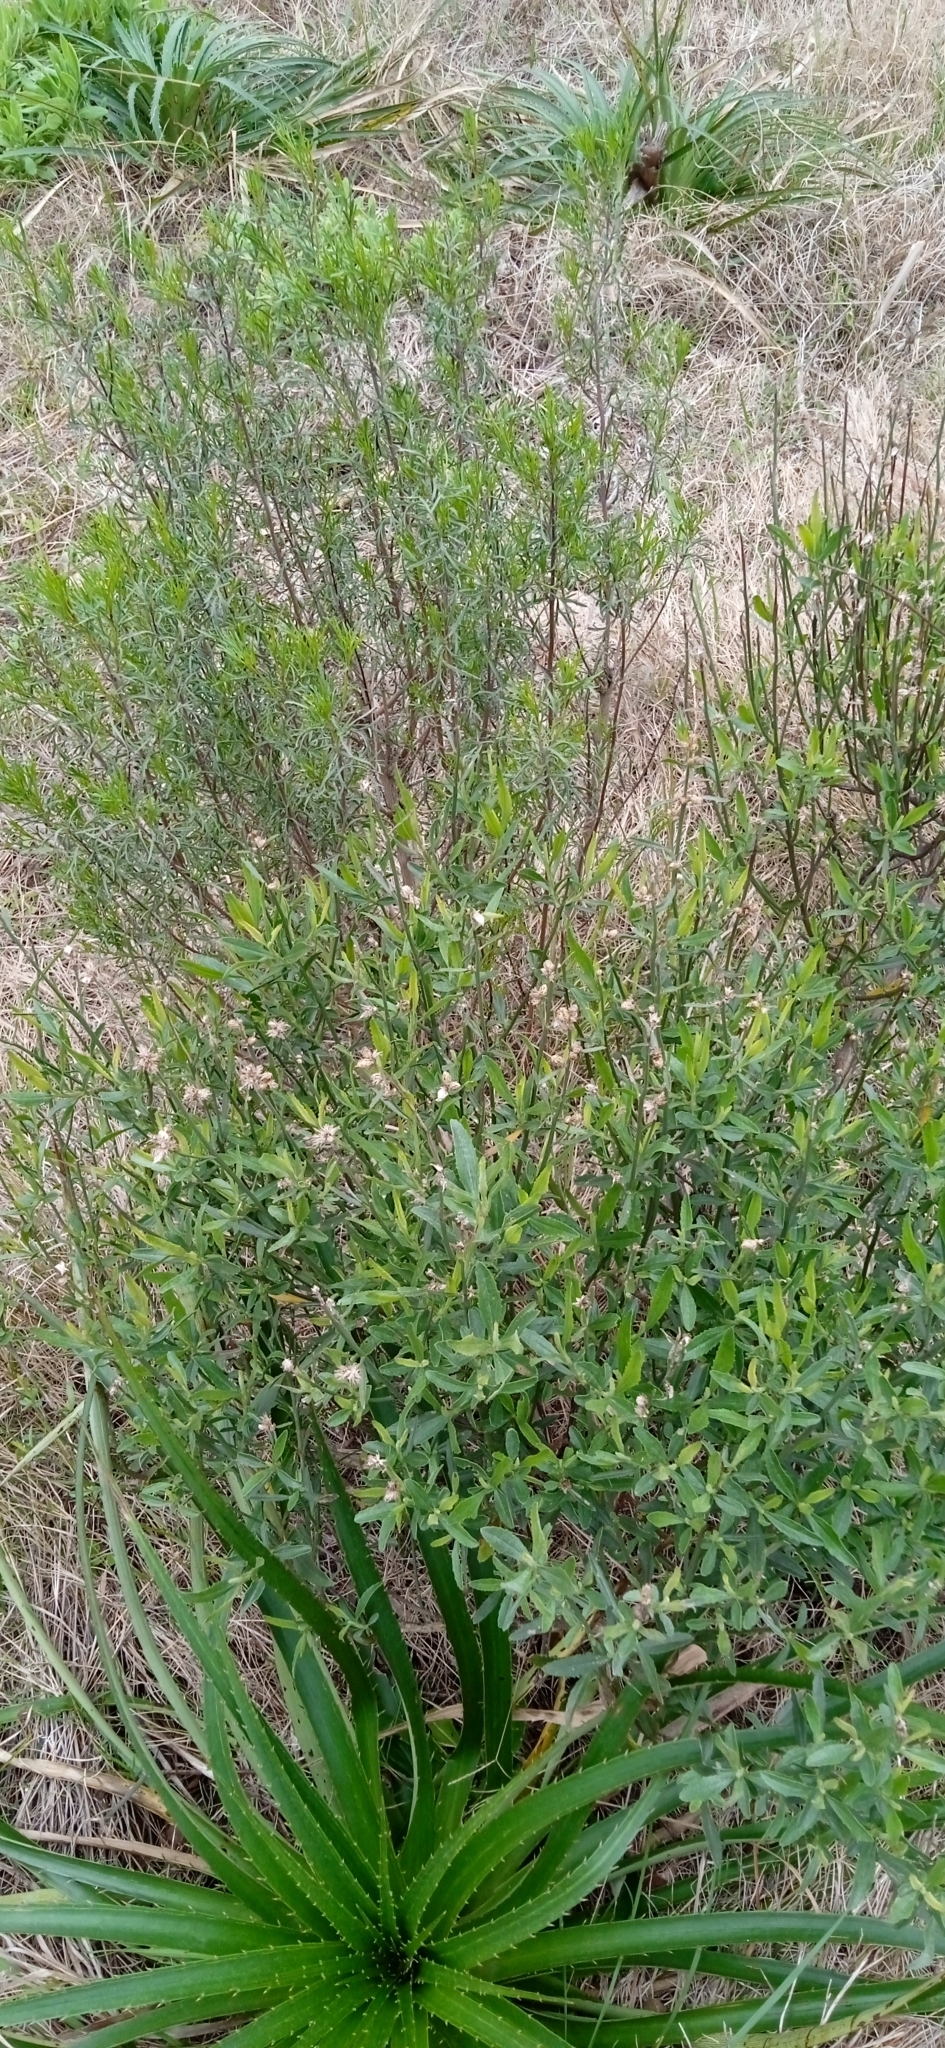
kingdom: Plantae
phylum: Tracheophyta
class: Magnoliopsida
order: Asterales
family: Asteraceae
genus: Baccharis
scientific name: Baccharis spicata
